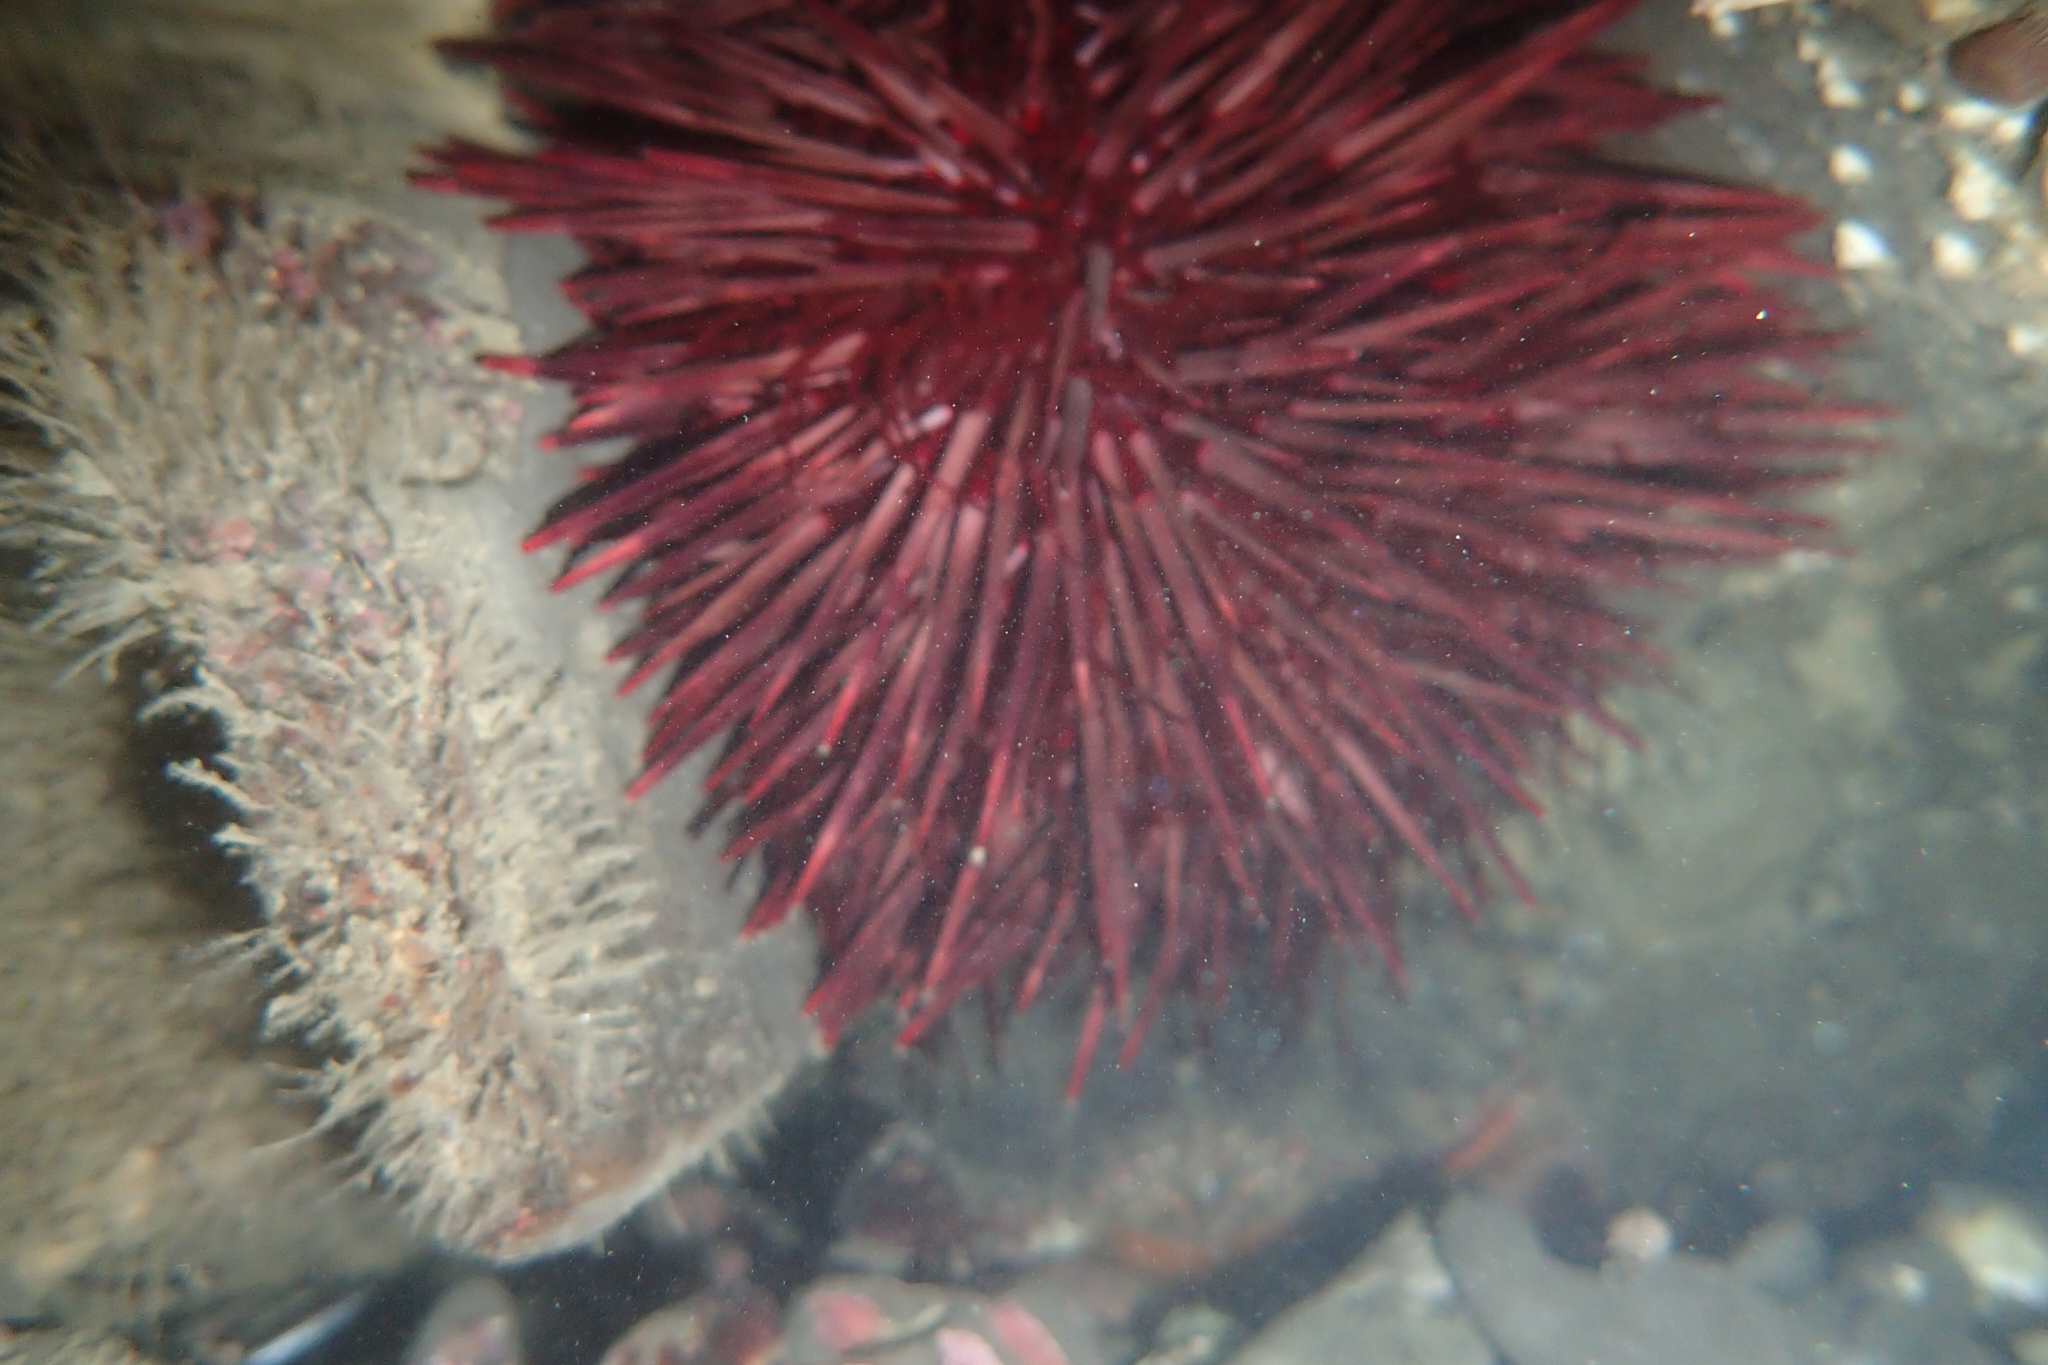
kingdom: Animalia
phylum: Echinodermata
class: Echinoidea
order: Camarodonta
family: Strongylocentrotidae
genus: Mesocentrotus
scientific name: Mesocentrotus franciscanus
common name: Red sea urchin
